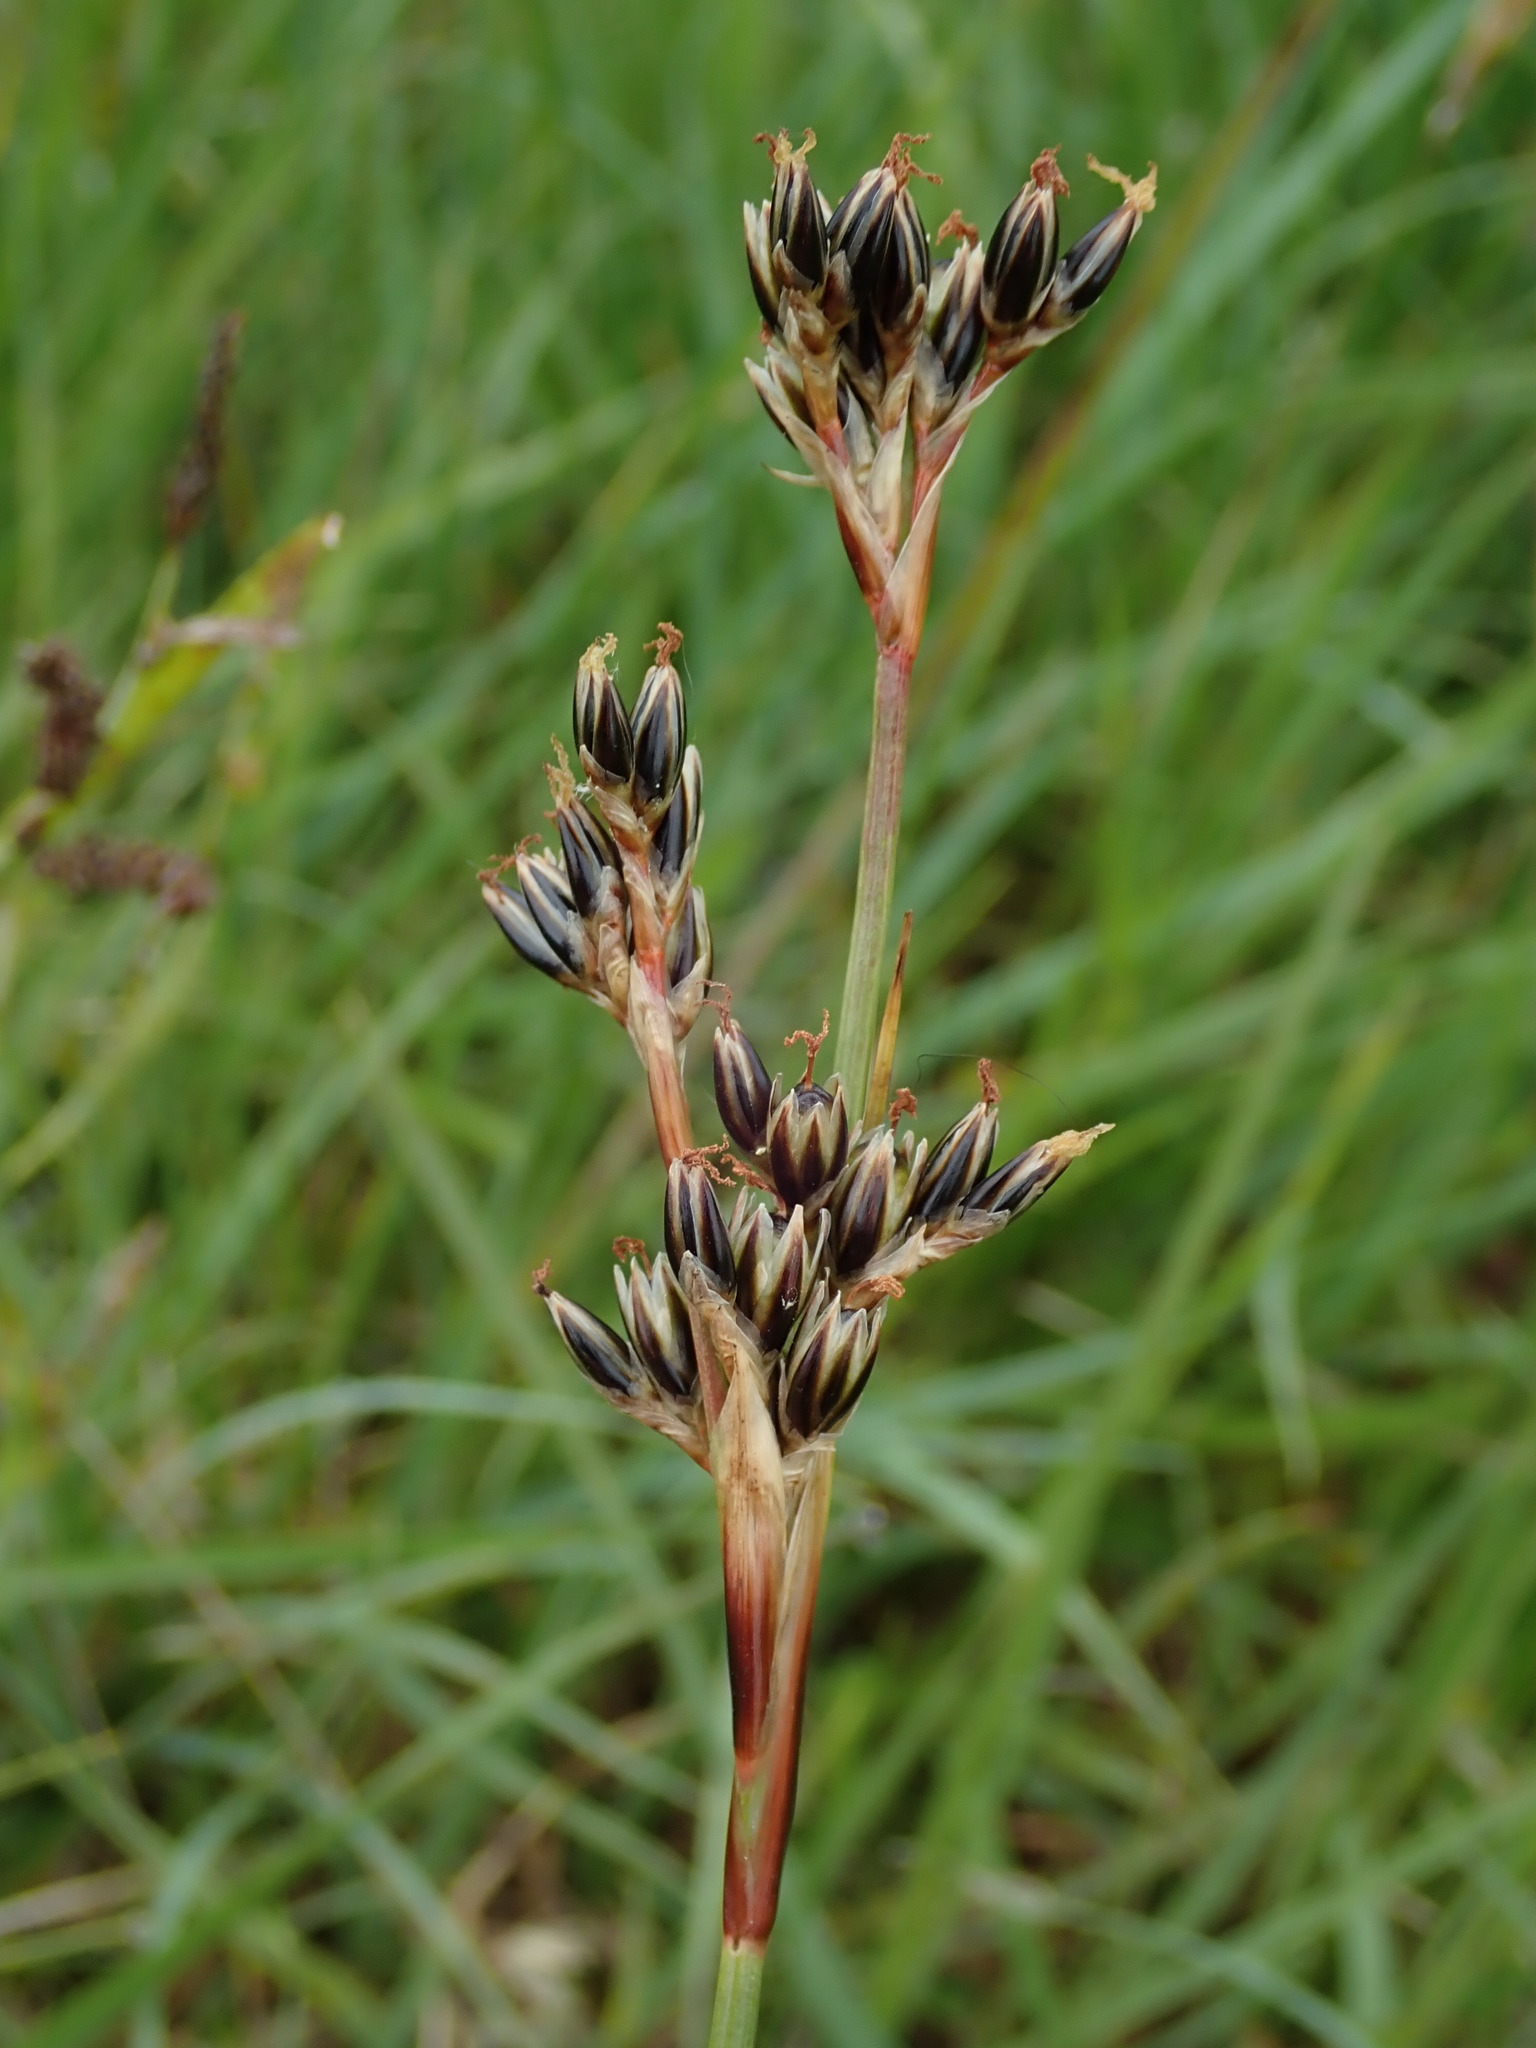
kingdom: Plantae
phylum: Tracheophyta
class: Liliopsida
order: Poales
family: Juncaceae
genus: Juncus
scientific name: Juncus squarrosus
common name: Heath rush
